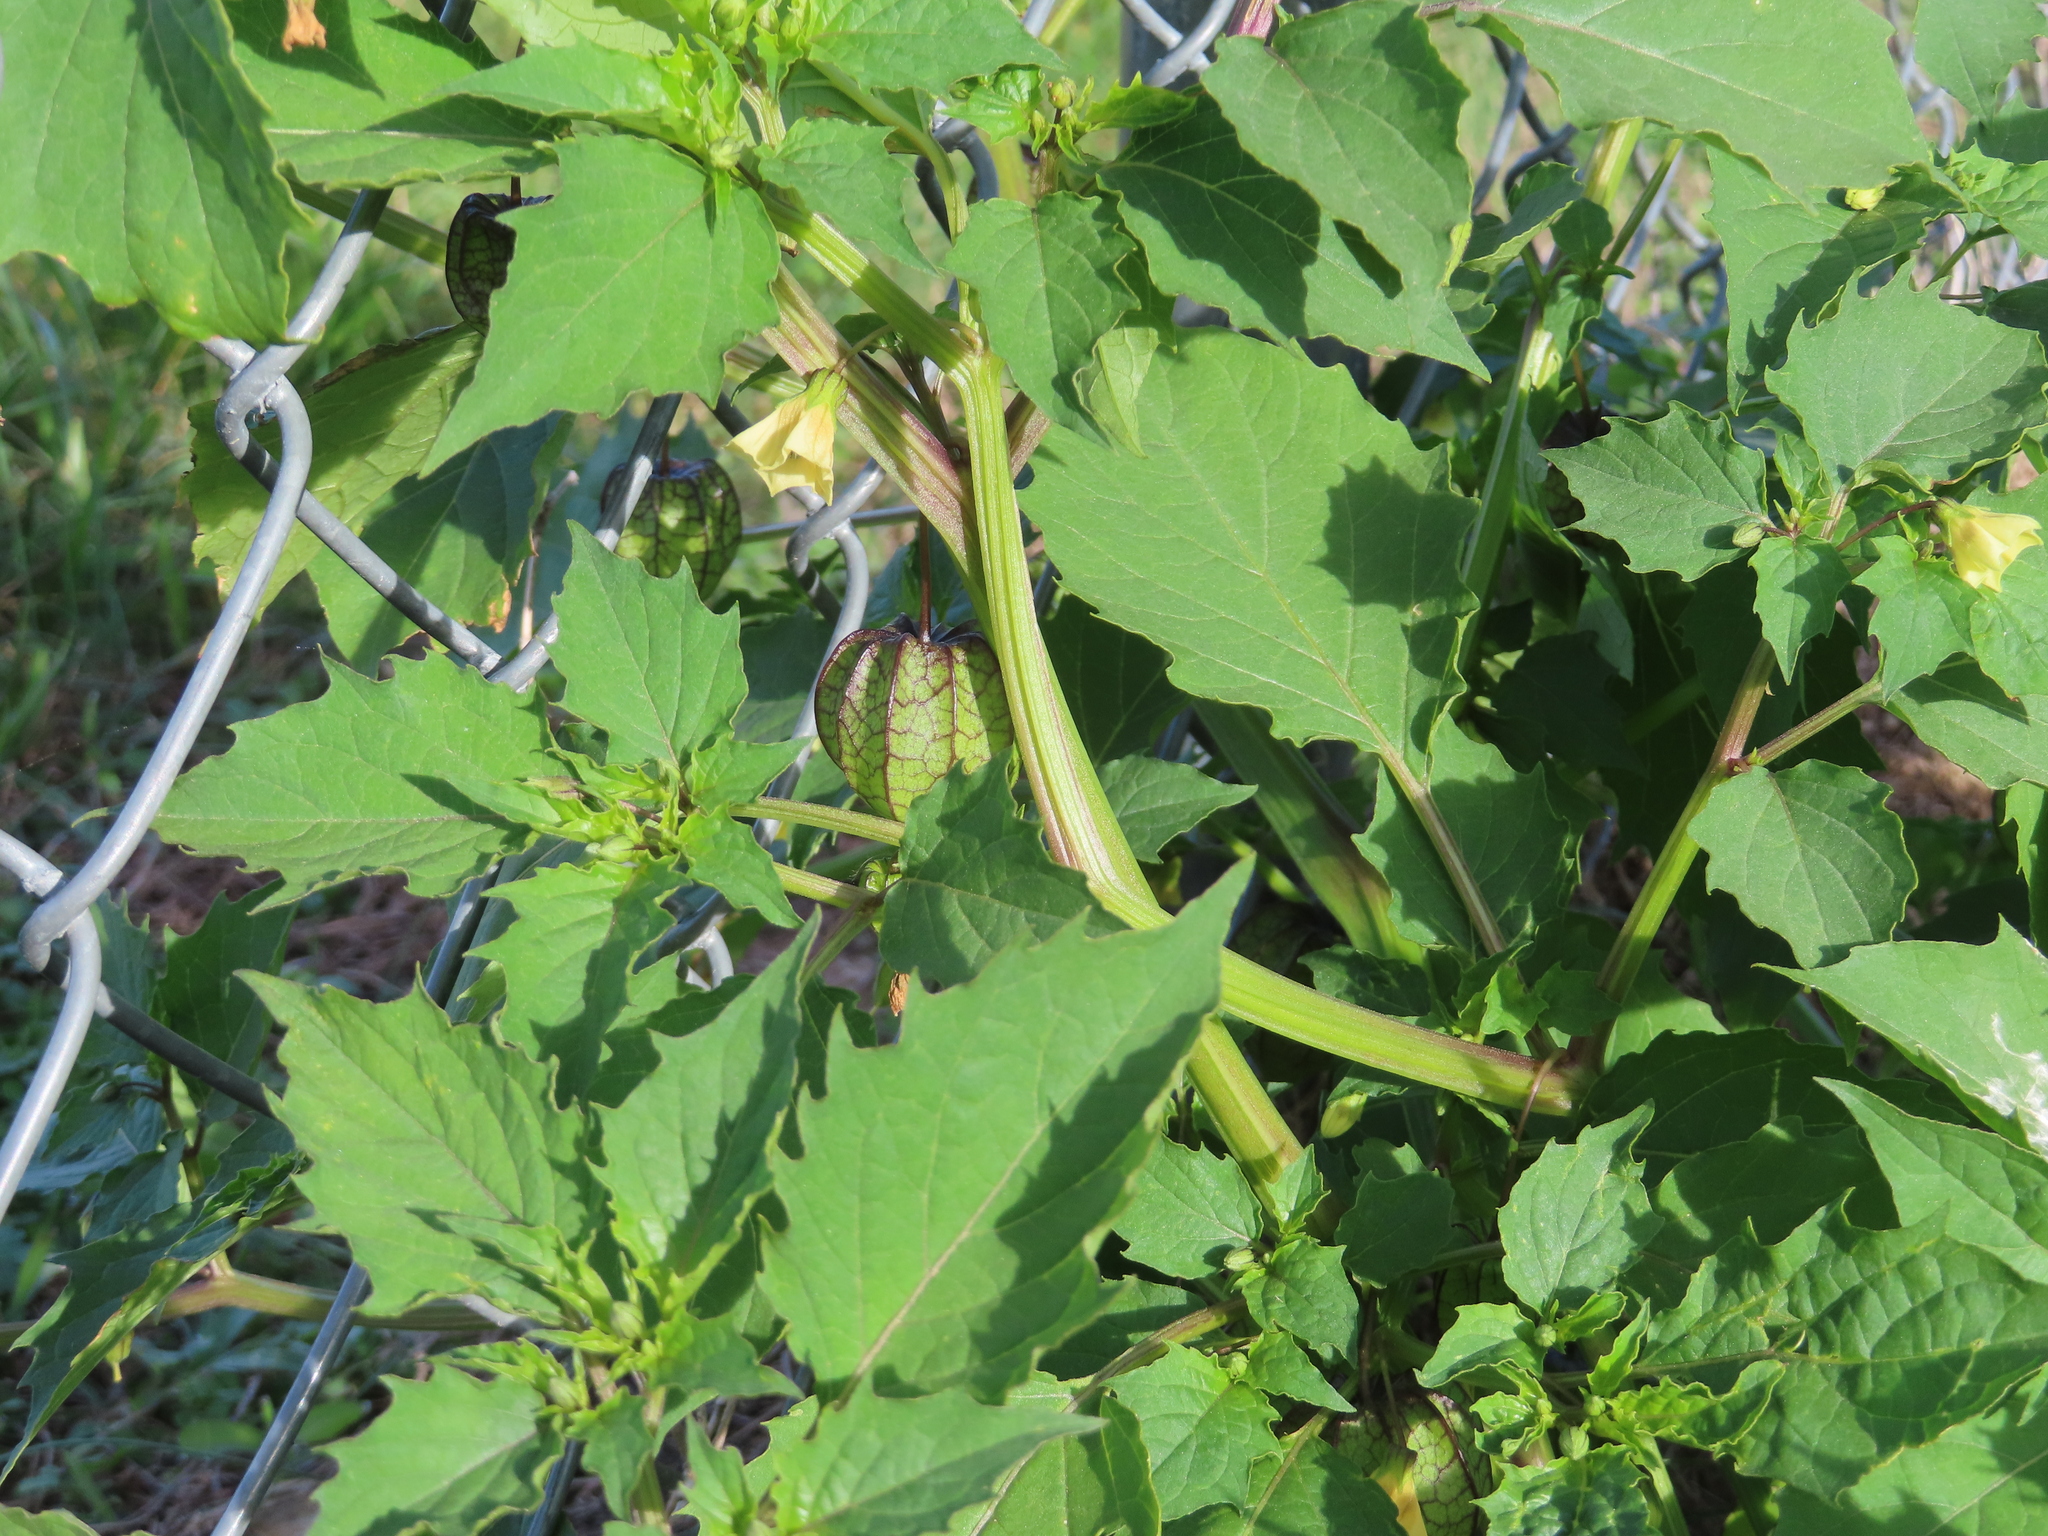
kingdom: Plantae
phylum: Tracheophyta
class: Magnoliopsida
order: Solanales
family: Solanaceae
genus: Physalis
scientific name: Physalis angulata
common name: Angular winter-cherry
